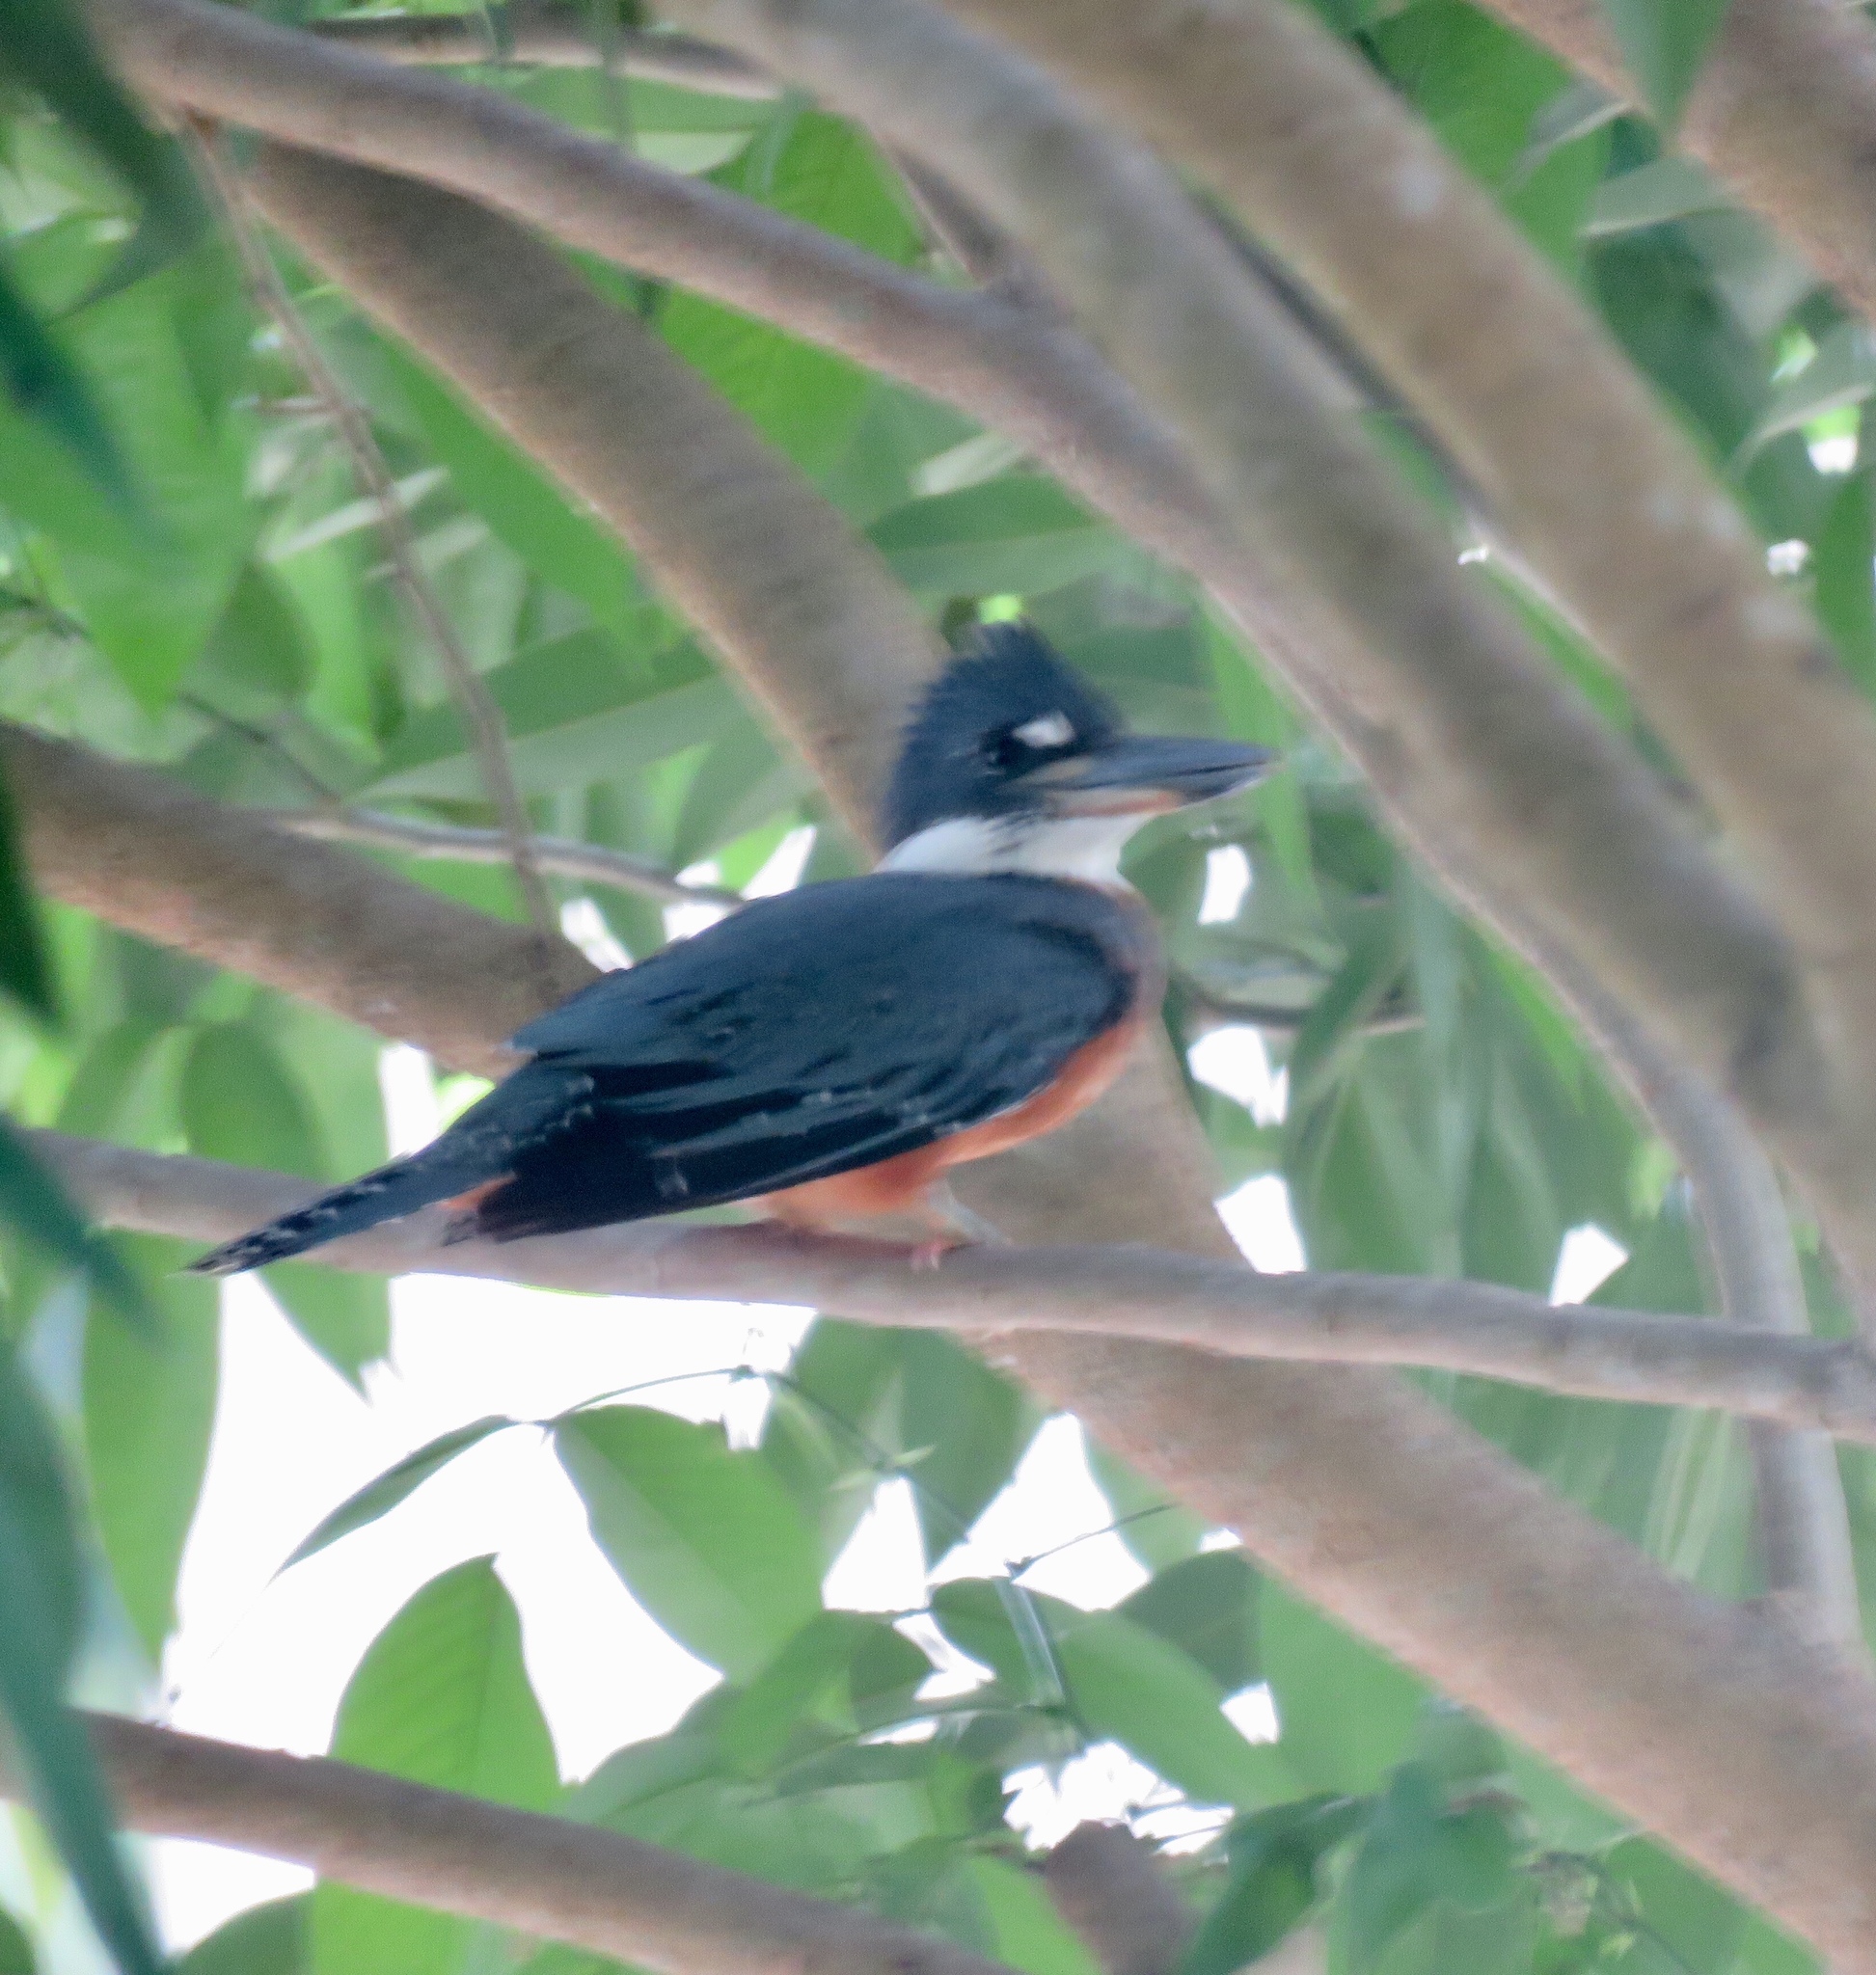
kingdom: Animalia
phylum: Chordata
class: Aves
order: Coraciiformes
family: Alcedinidae
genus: Megaceryle
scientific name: Megaceryle torquata
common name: Ringed kingfisher
